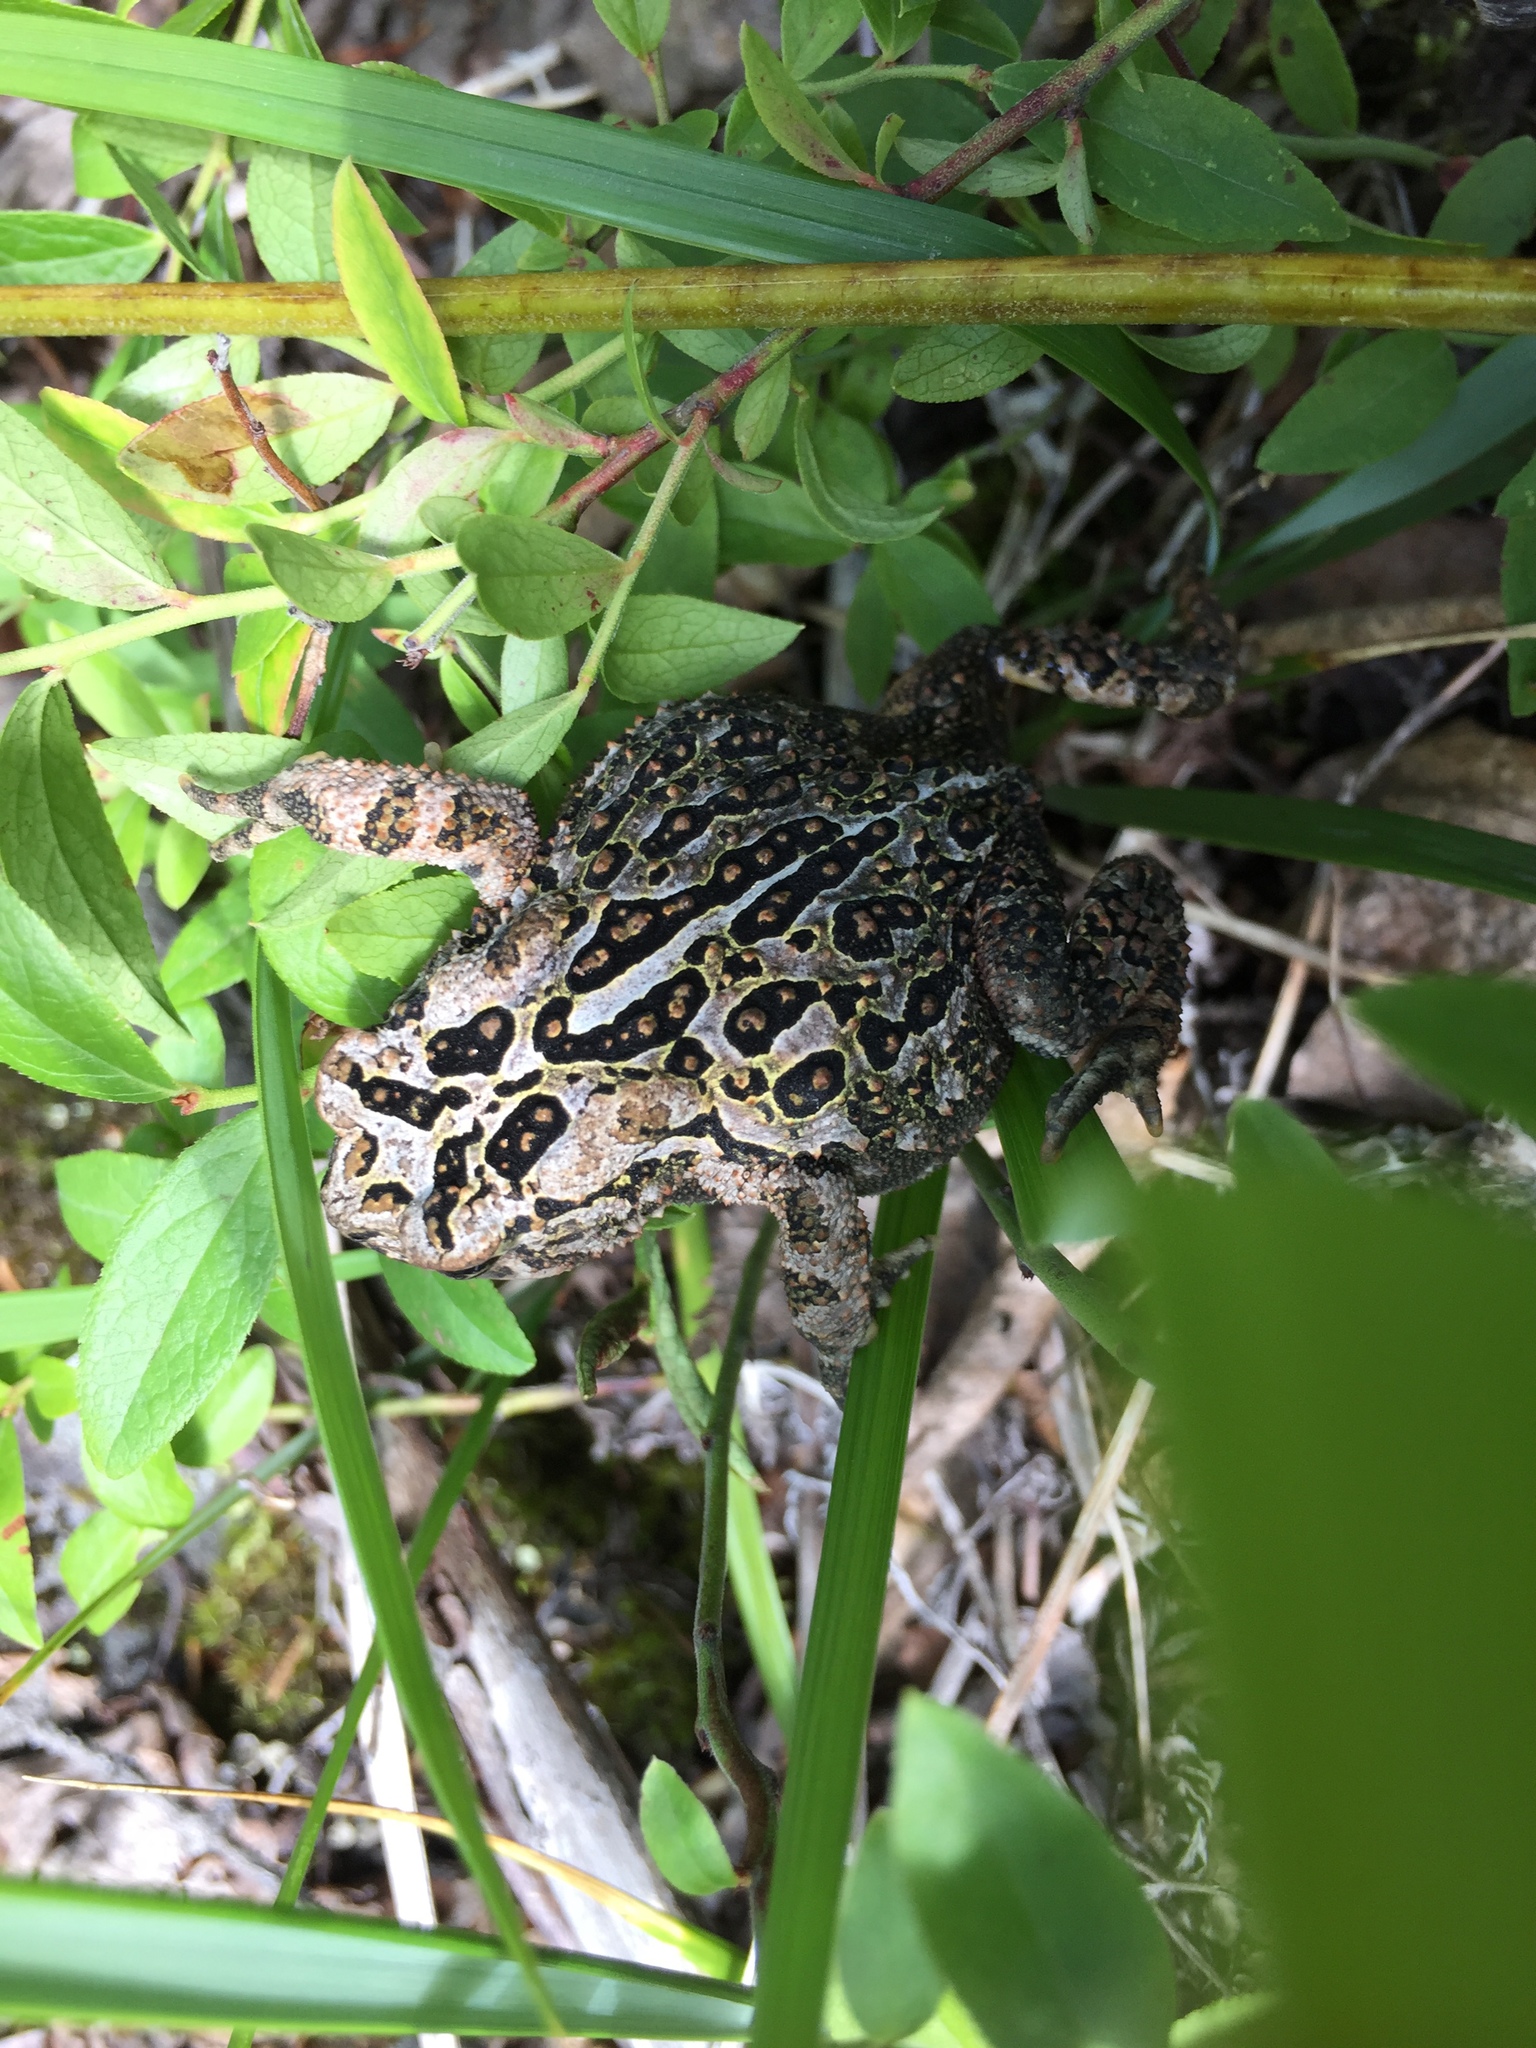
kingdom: Animalia
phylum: Chordata
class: Amphibia
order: Anura
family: Bufonidae
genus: Anaxyrus
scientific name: Anaxyrus americanus
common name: American toad
